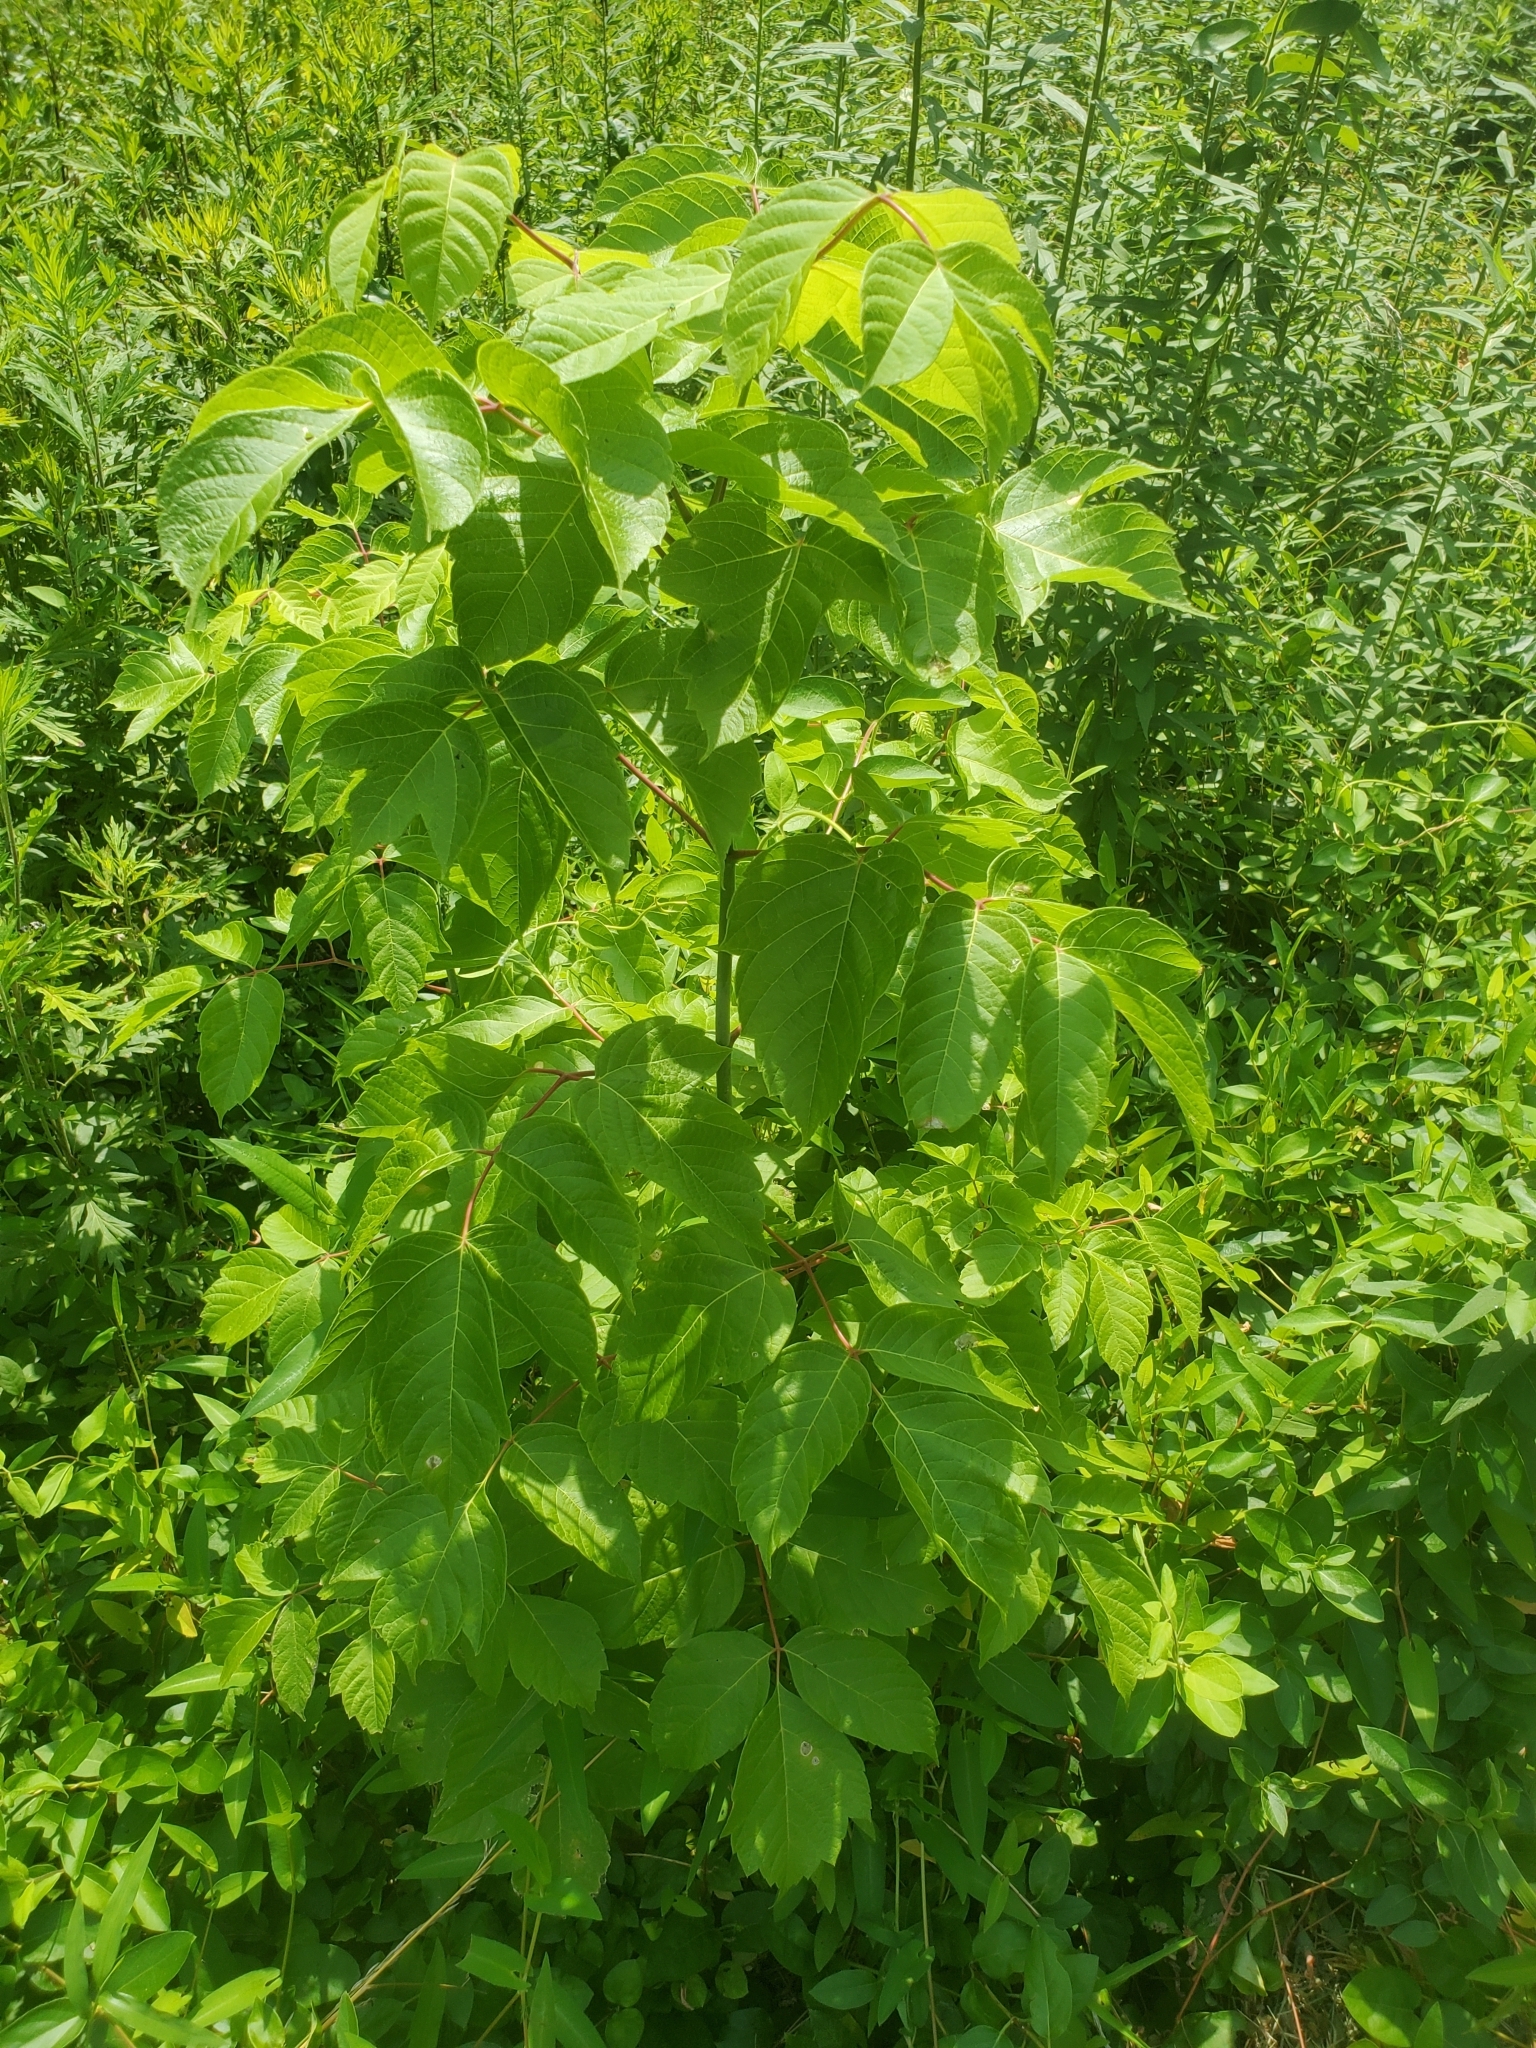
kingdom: Plantae
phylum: Tracheophyta
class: Magnoliopsida
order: Sapindales
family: Sapindaceae
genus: Acer
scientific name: Acer negundo
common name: Ashleaf maple
